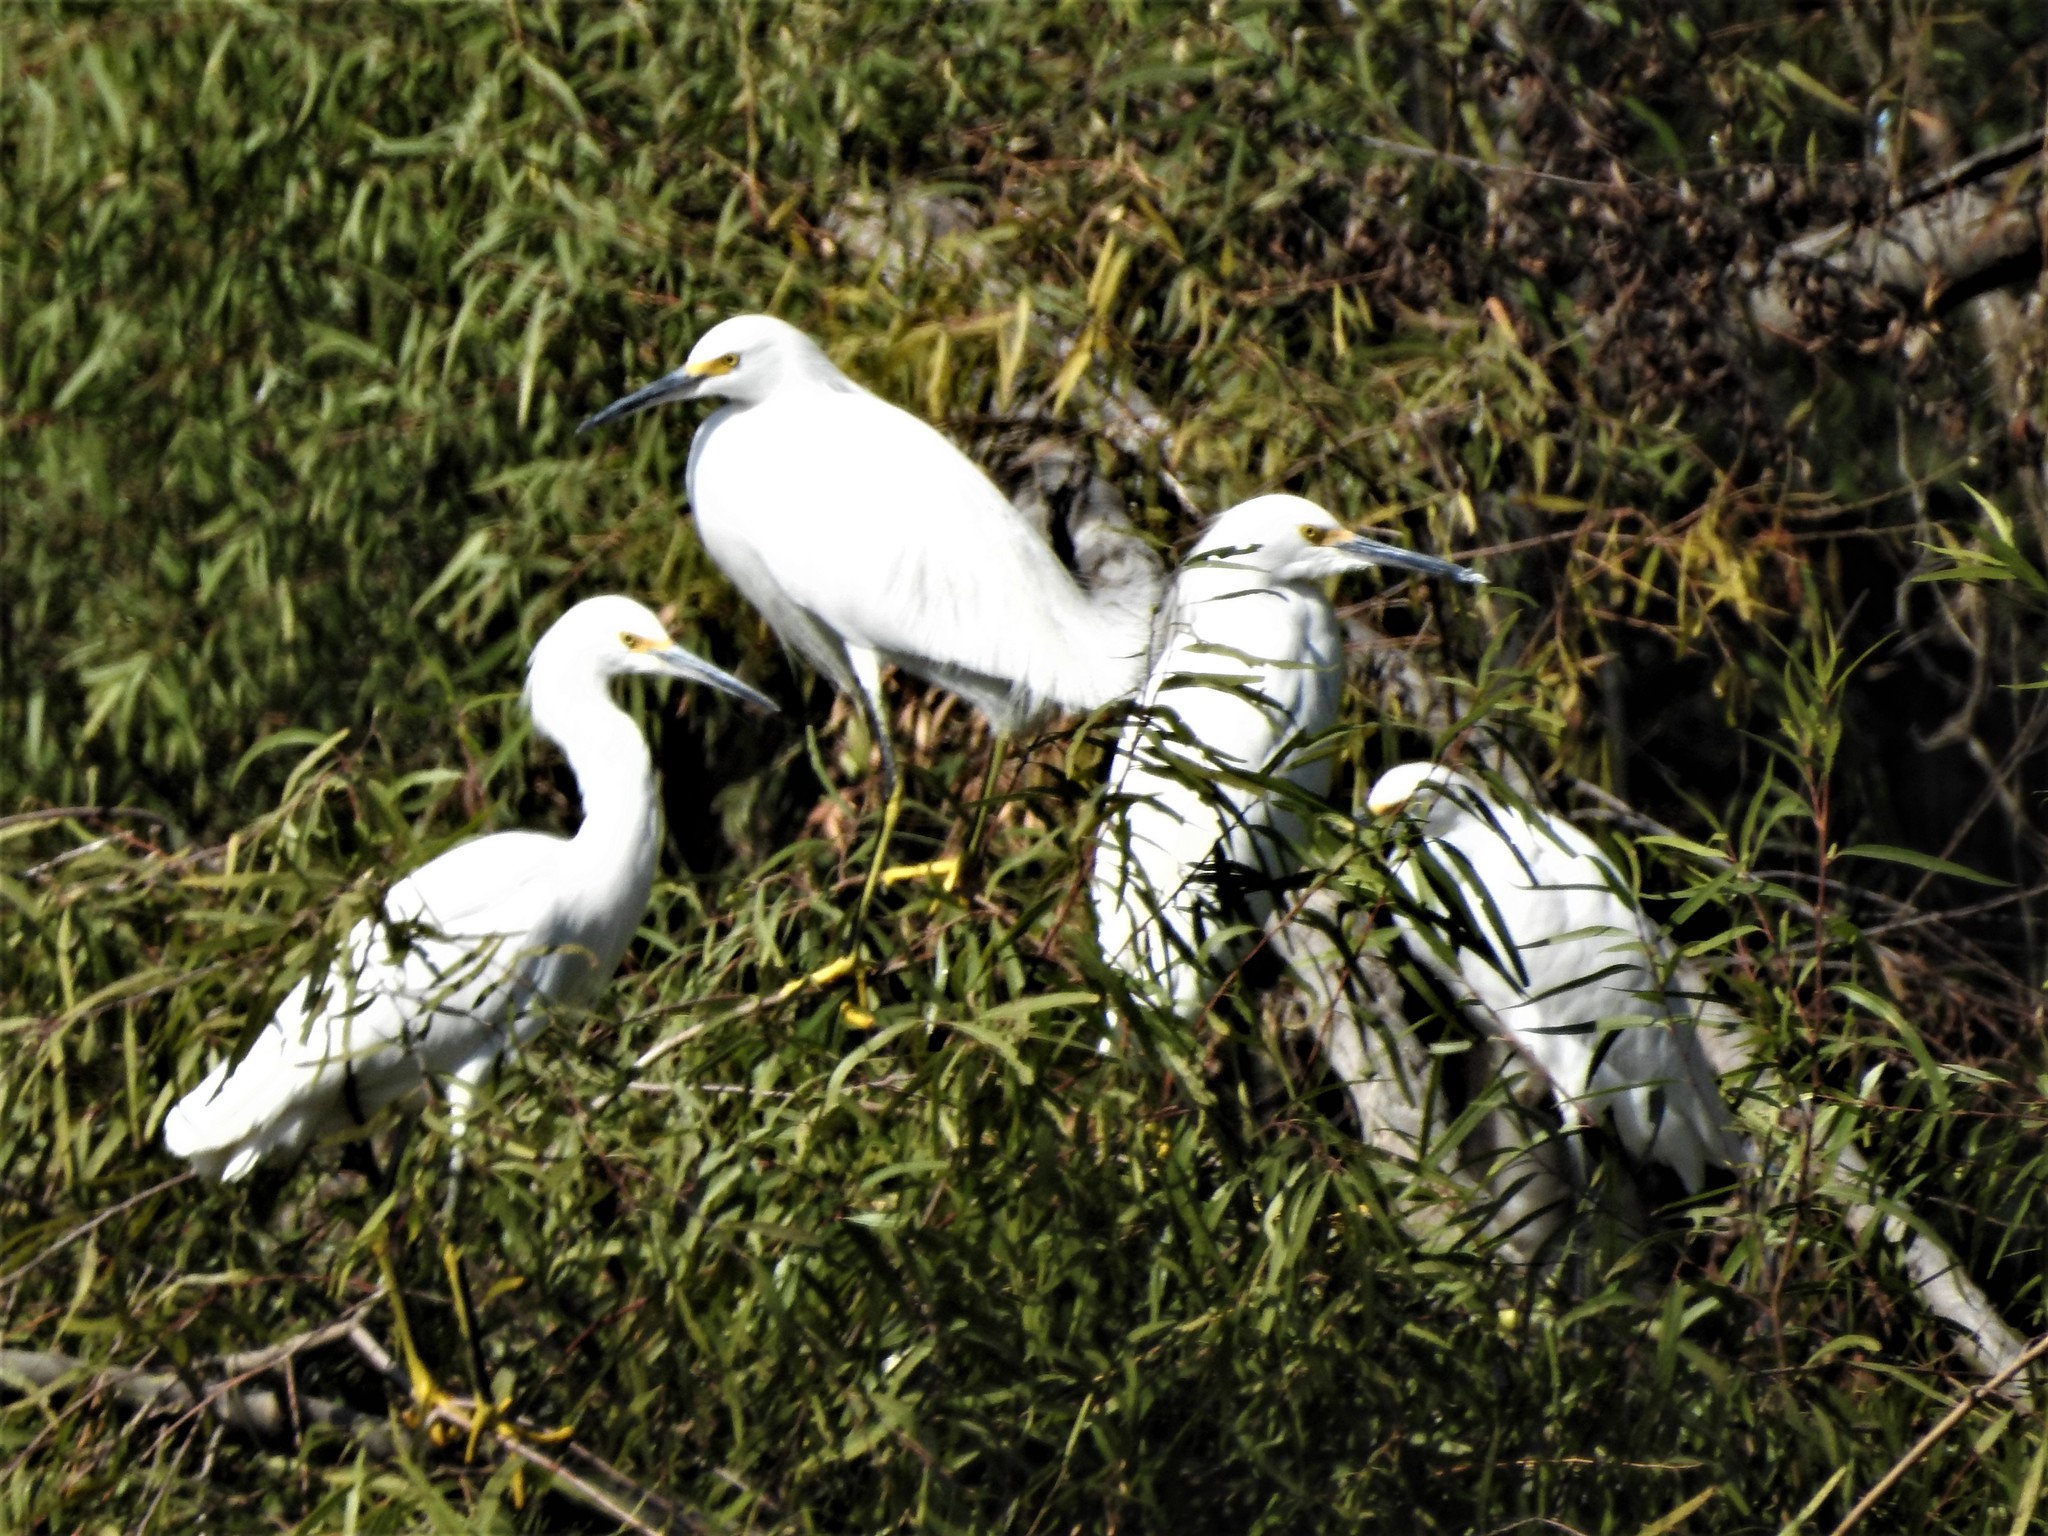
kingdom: Animalia
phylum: Chordata
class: Aves
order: Pelecaniformes
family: Ardeidae
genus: Egretta
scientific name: Egretta thula
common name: Snowy egret
